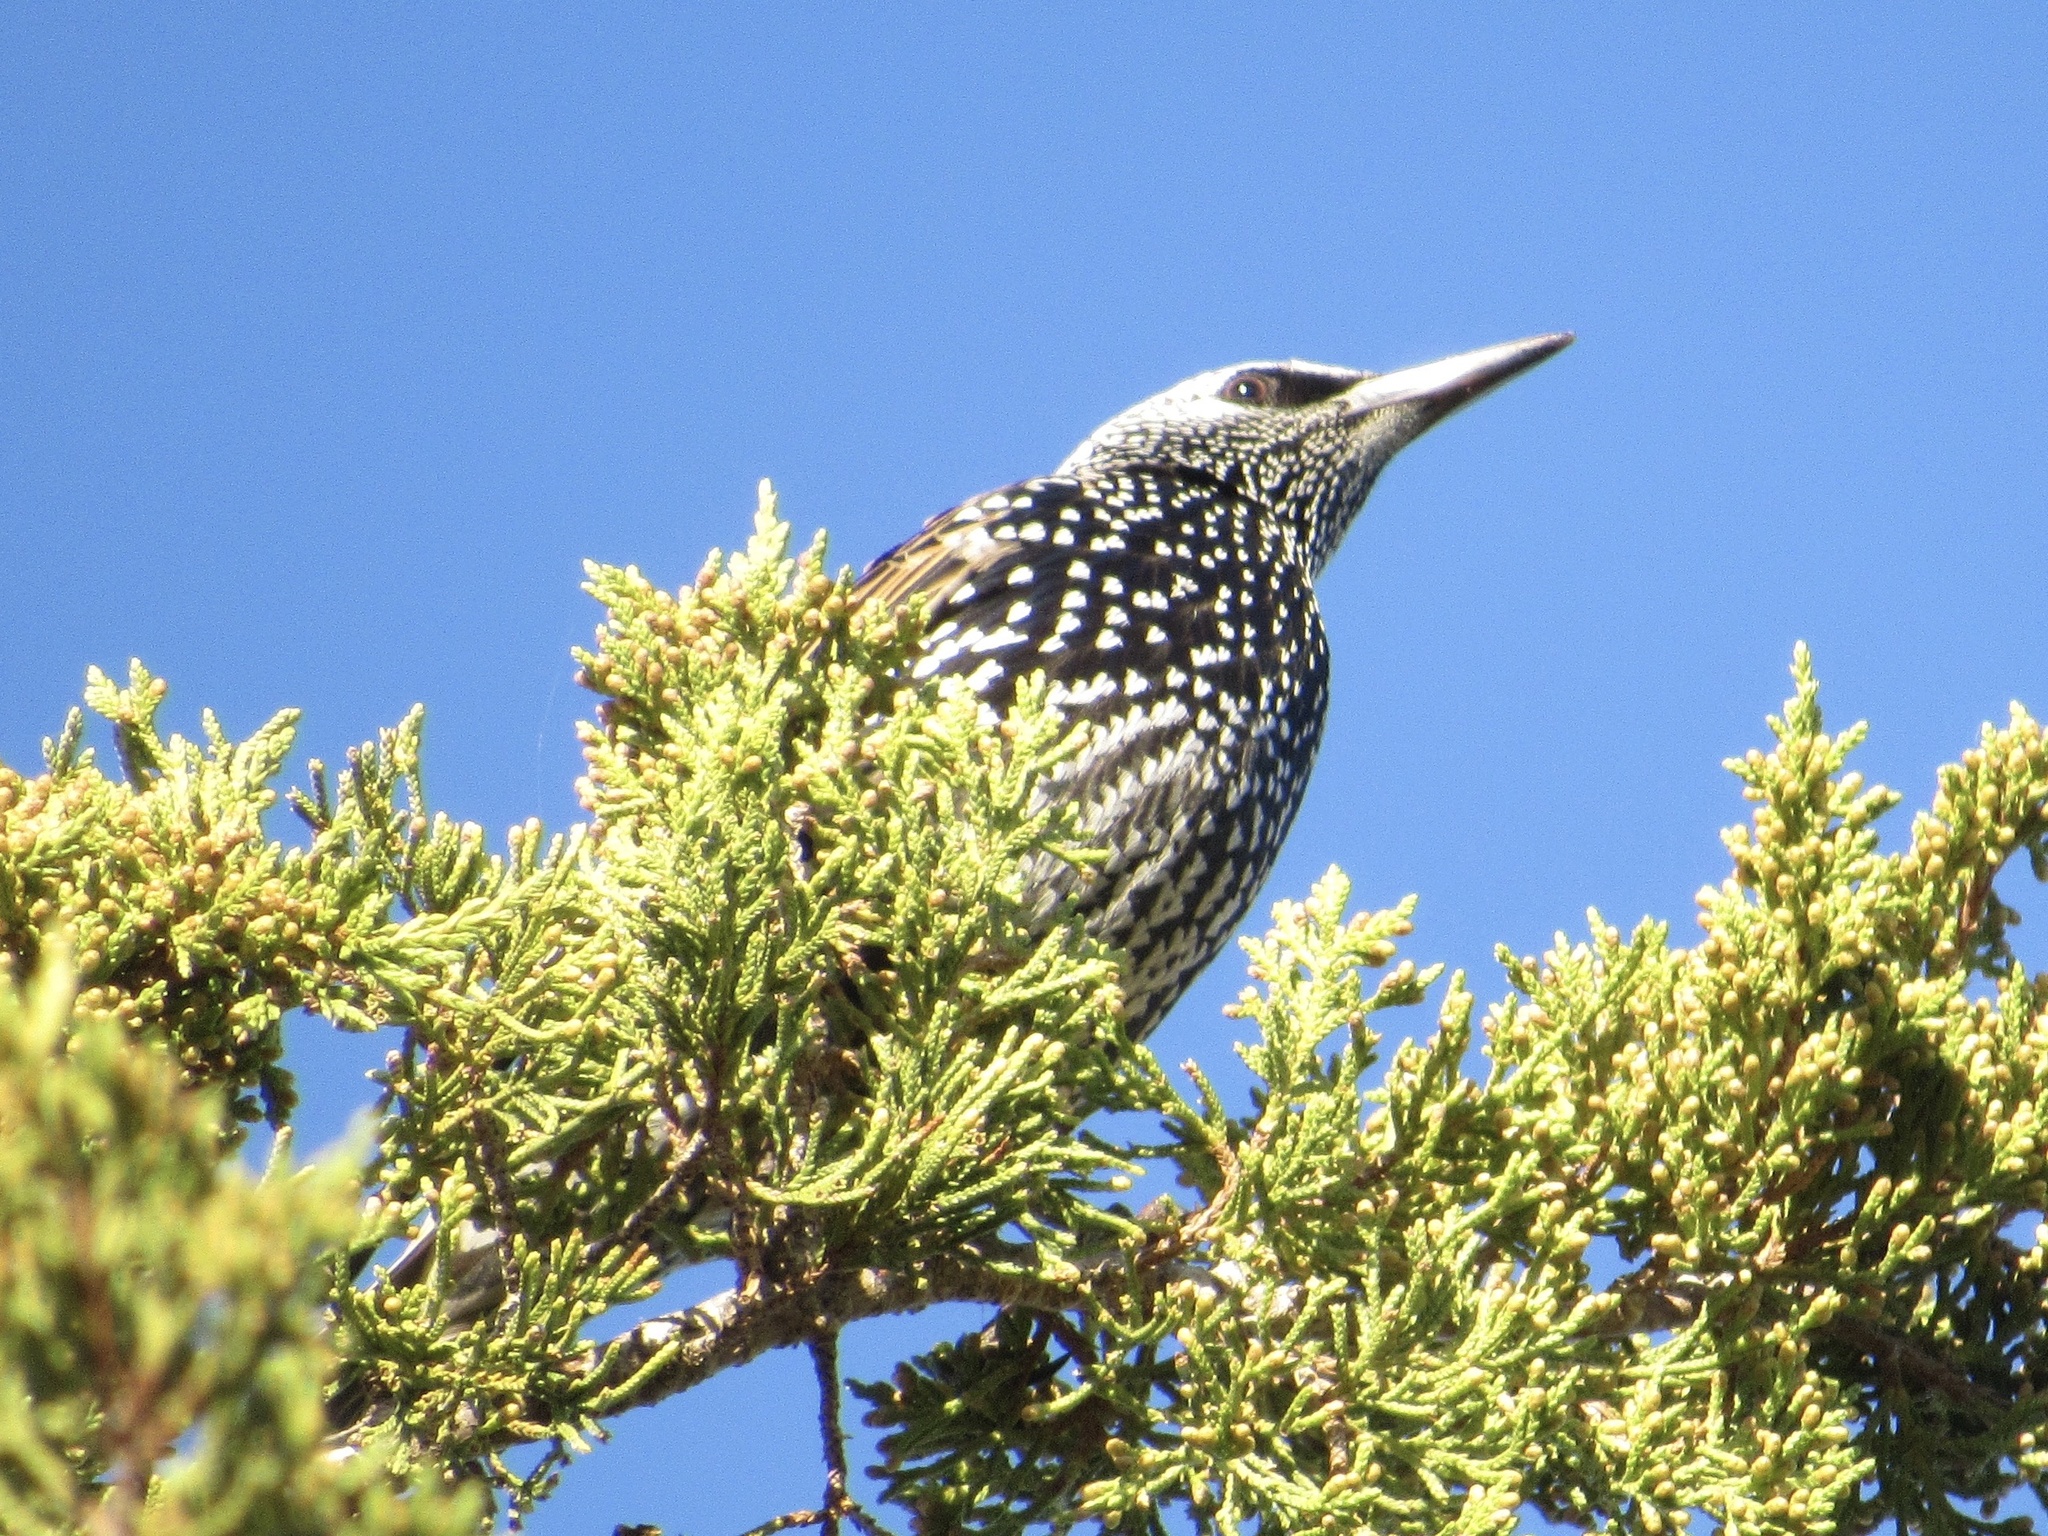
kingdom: Animalia
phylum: Chordata
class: Aves
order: Passeriformes
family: Sturnidae
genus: Sturnus
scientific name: Sturnus vulgaris
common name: Common starling
